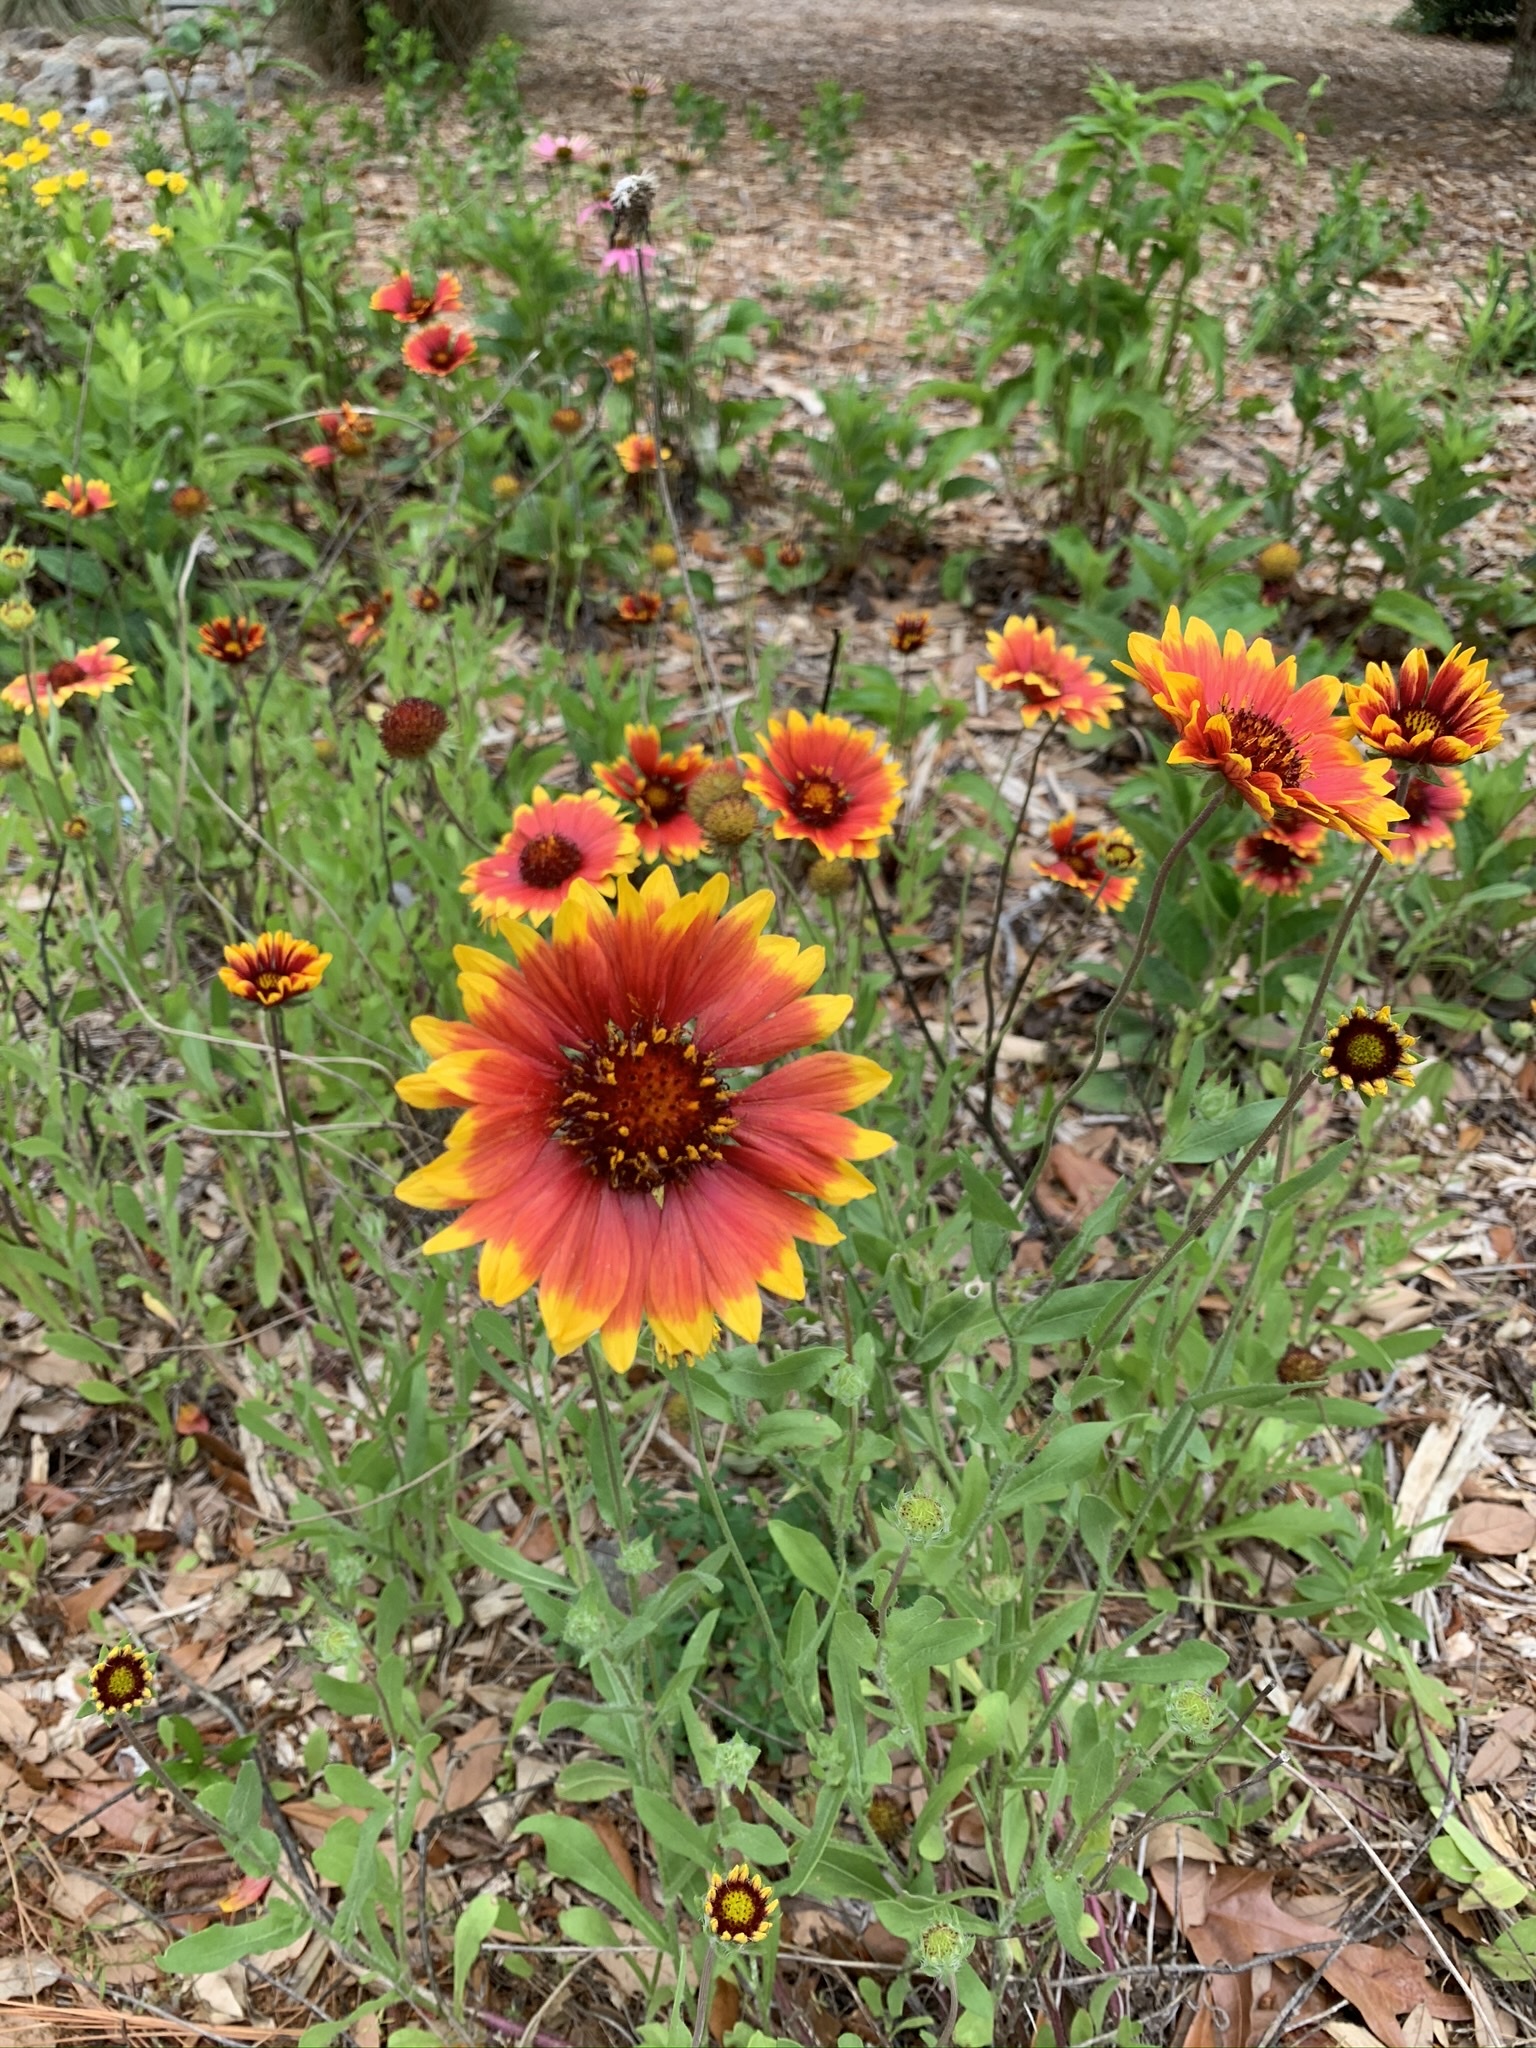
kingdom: Plantae
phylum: Tracheophyta
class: Magnoliopsida
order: Asterales
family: Asteraceae
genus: Gaillardia
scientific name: Gaillardia pulchella
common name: Firewheel
